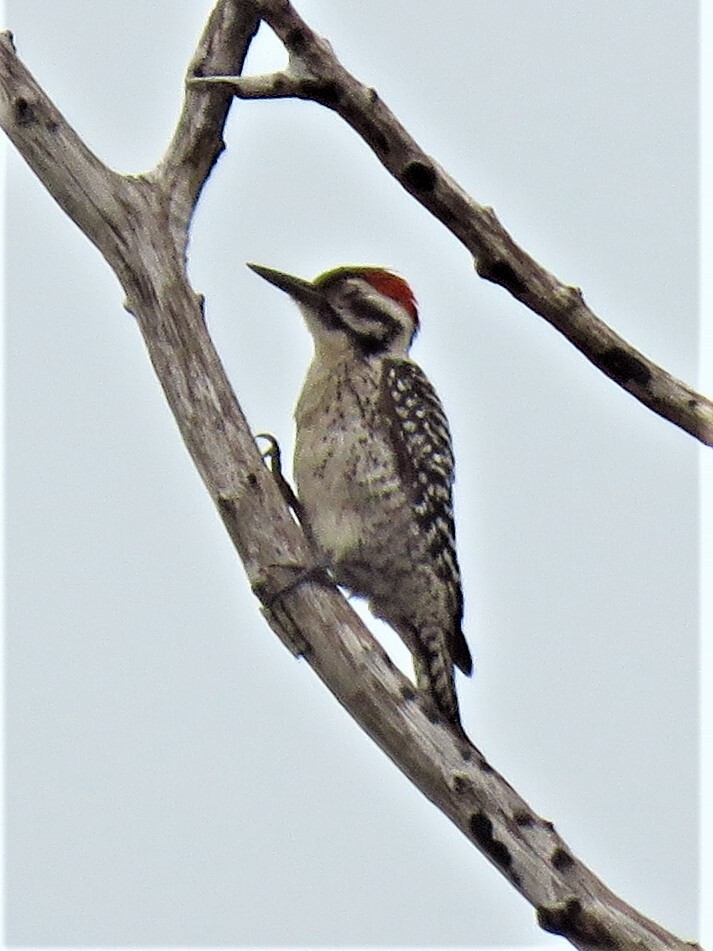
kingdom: Animalia
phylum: Chordata
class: Aves
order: Piciformes
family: Picidae
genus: Dryobates
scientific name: Dryobates scalaris
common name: Ladder-backed woodpecker
